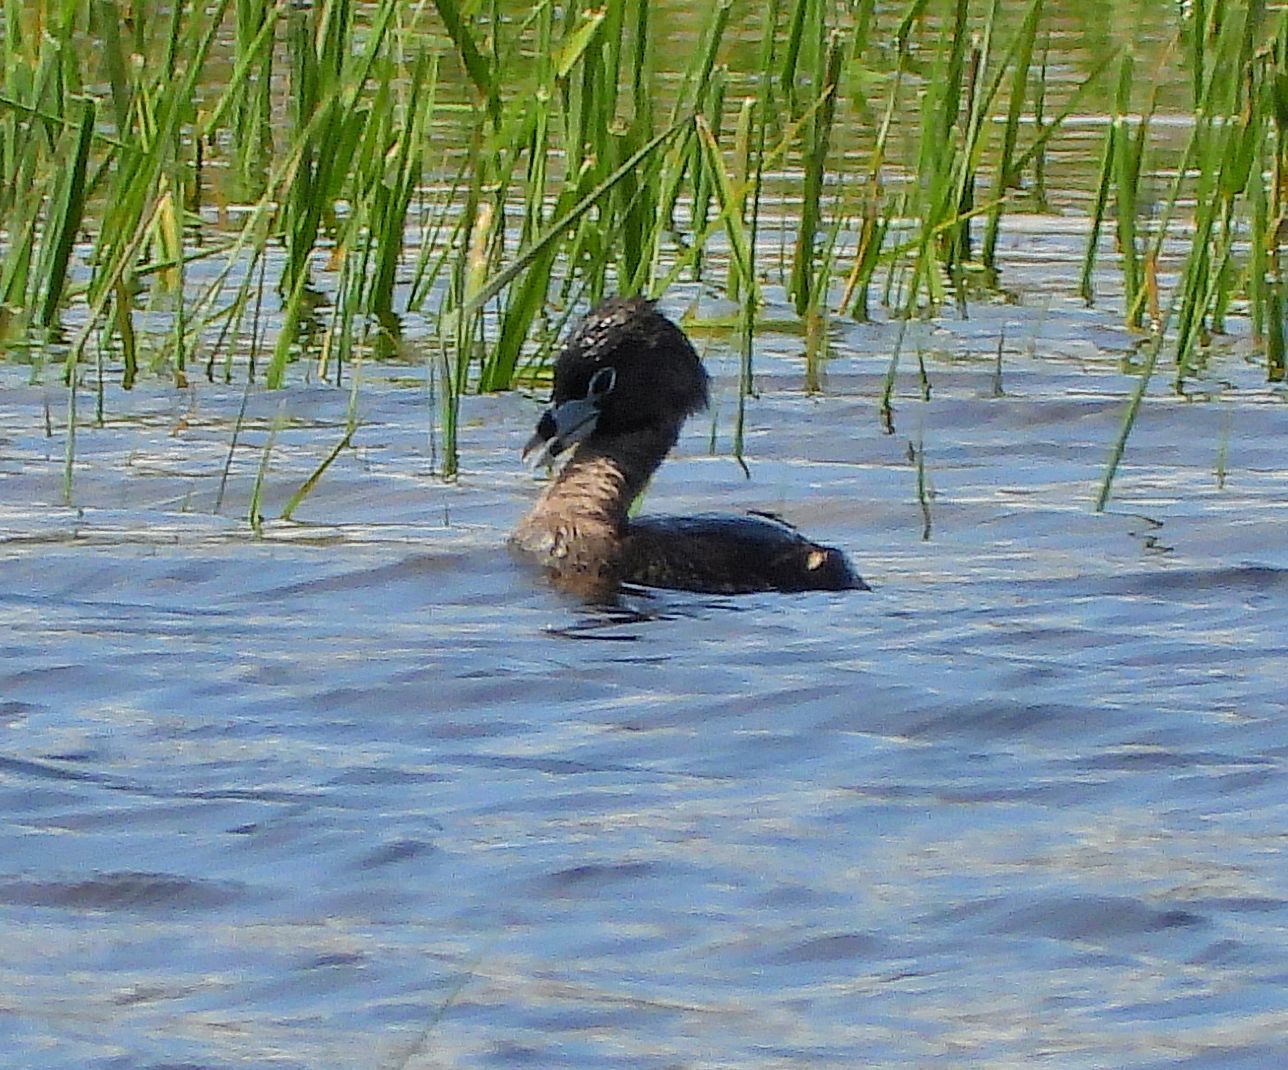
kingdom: Animalia
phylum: Chordata
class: Aves
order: Podicipediformes
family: Podicipedidae
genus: Podilymbus
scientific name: Podilymbus podiceps
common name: Pied-billed grebe
